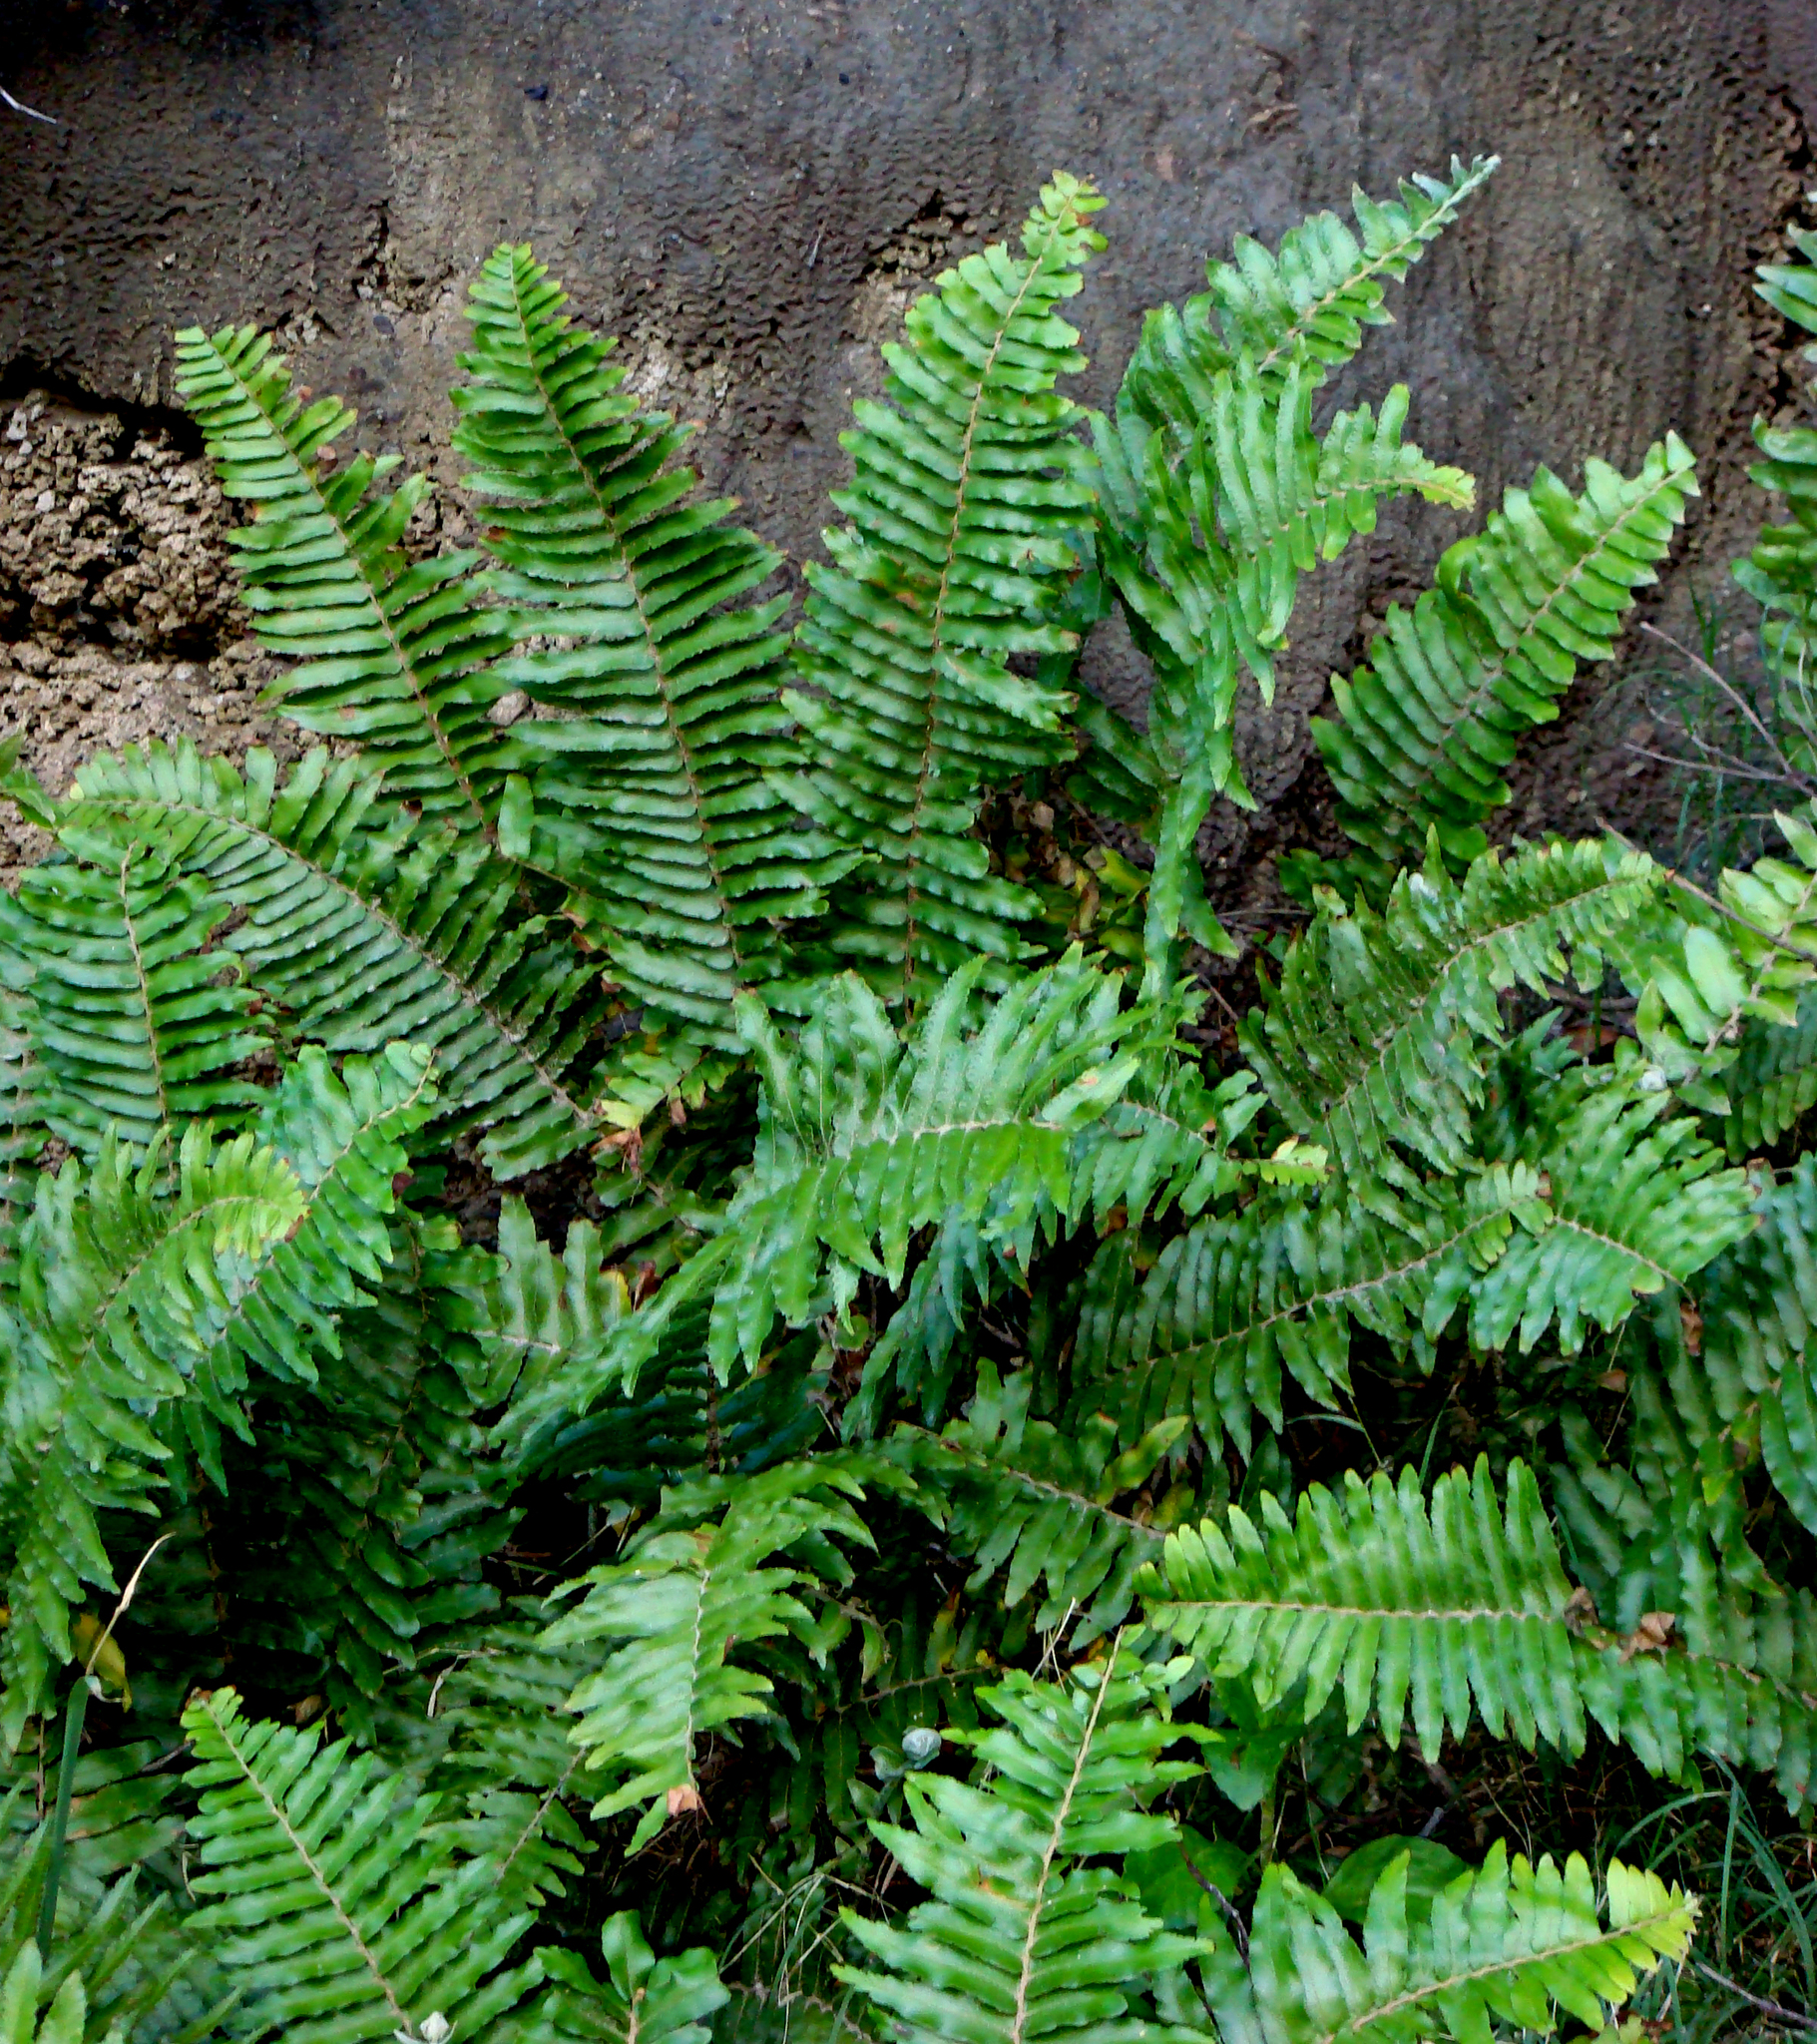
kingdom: Plantae
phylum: Tracheophyta
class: Polypodiopsida
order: Polypodiales
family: Nephrolepidaceae
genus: Nephrolepis
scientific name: Nephrolepis brownii
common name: Asian swordfern
